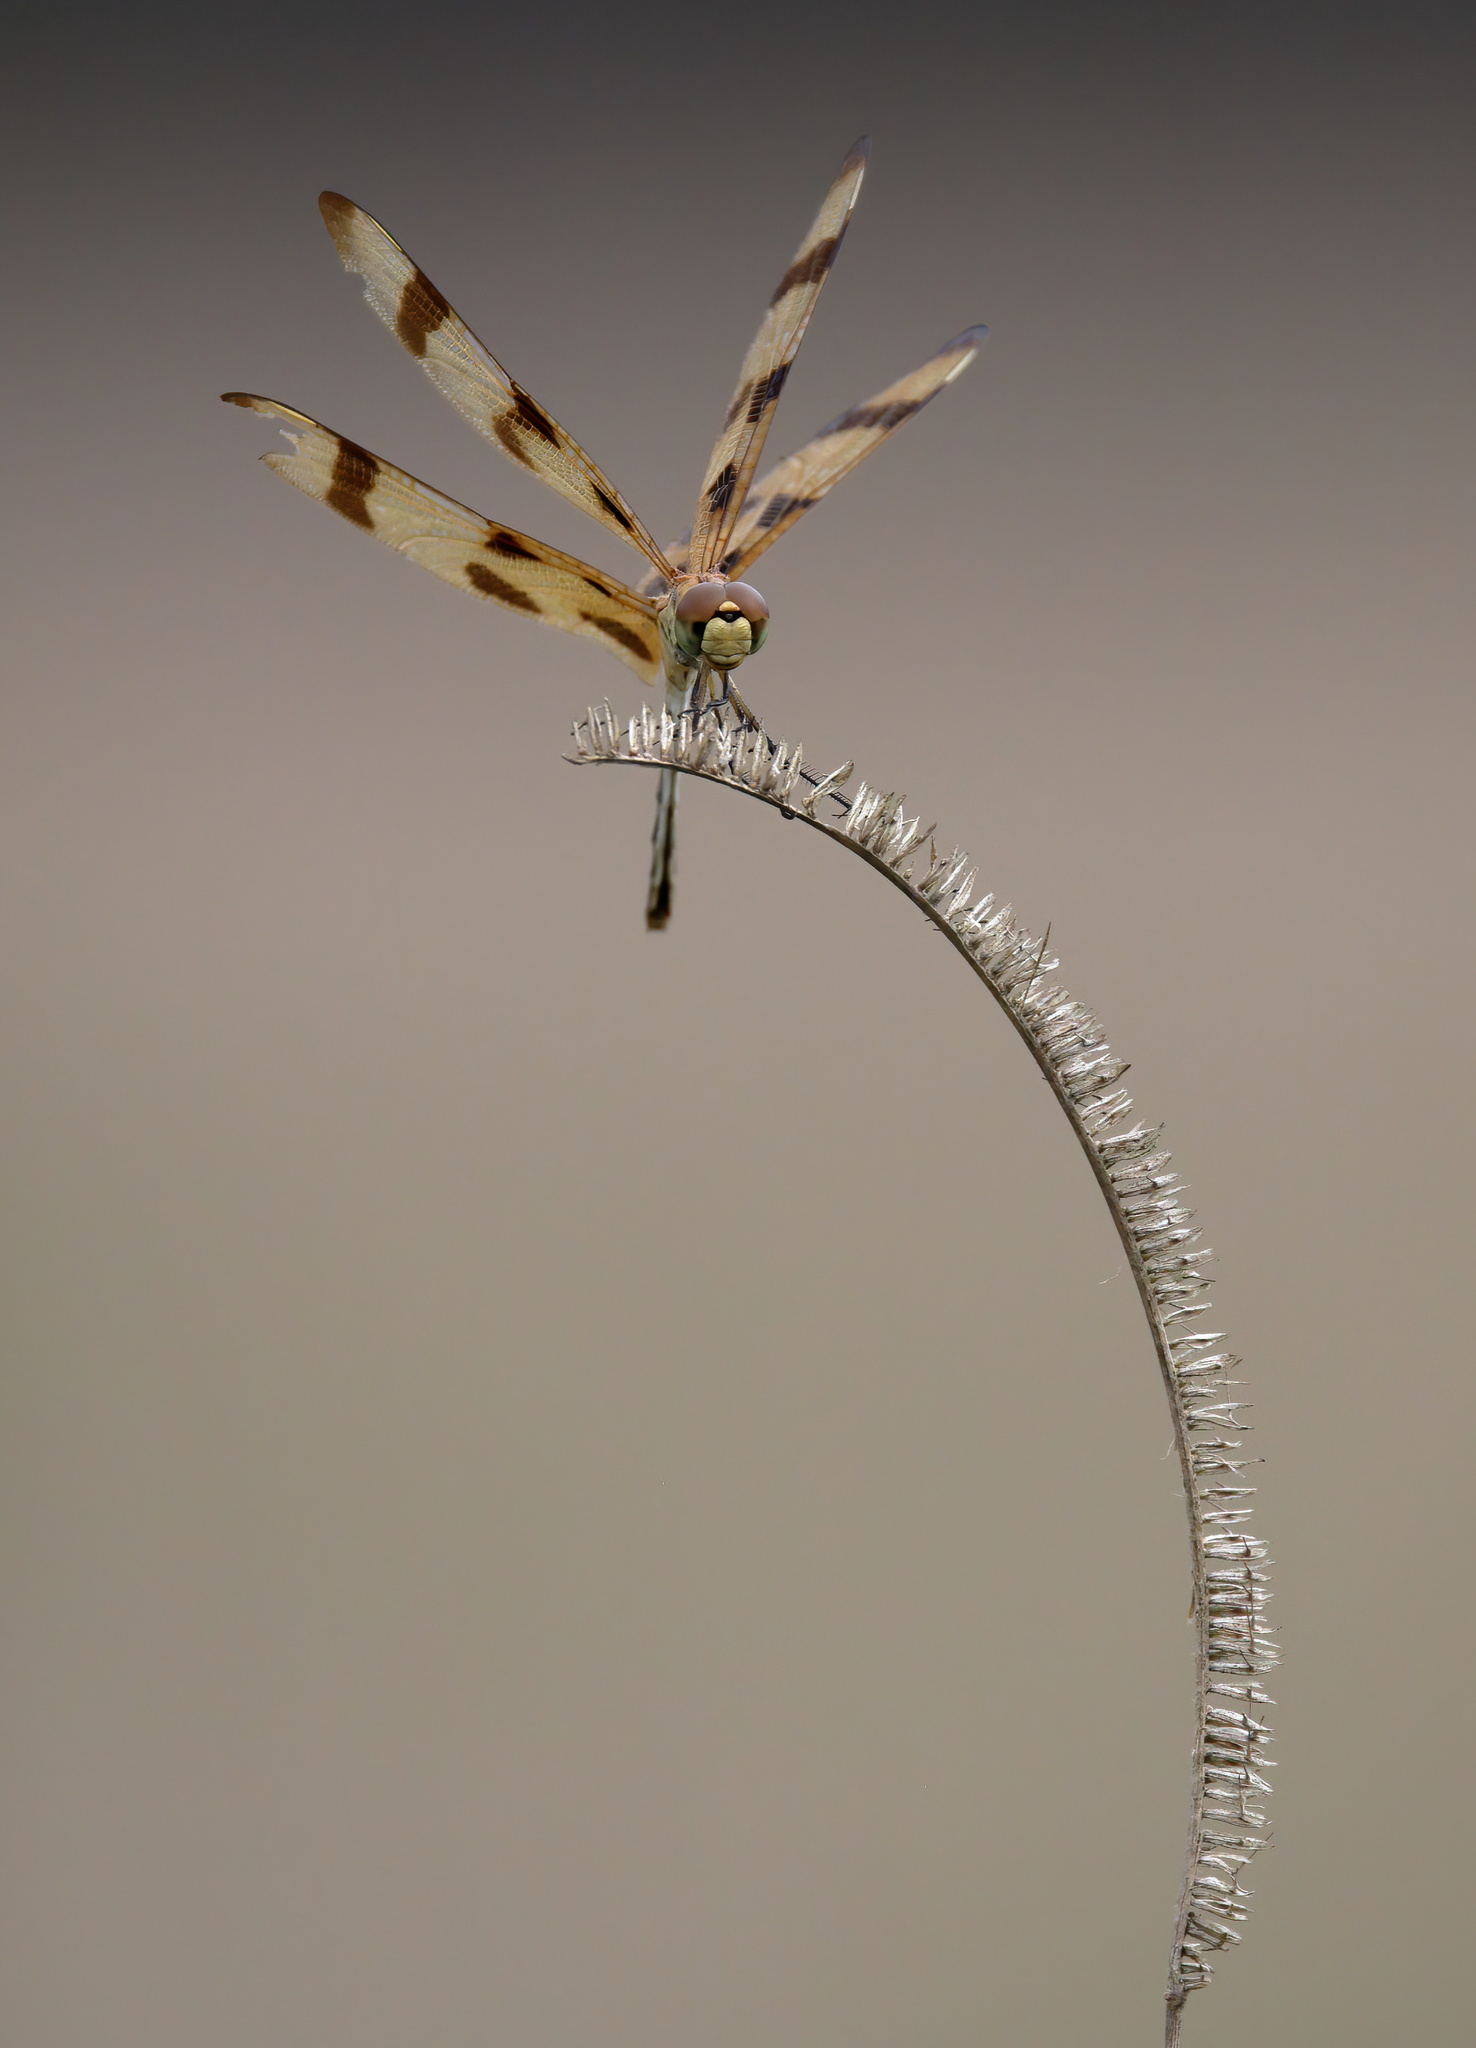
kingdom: Animalia
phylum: Arthropoda
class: Insecta
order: Odonata
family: Libellulidae
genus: Celithemis
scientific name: Celithemis eponina
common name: Halloween pennant
